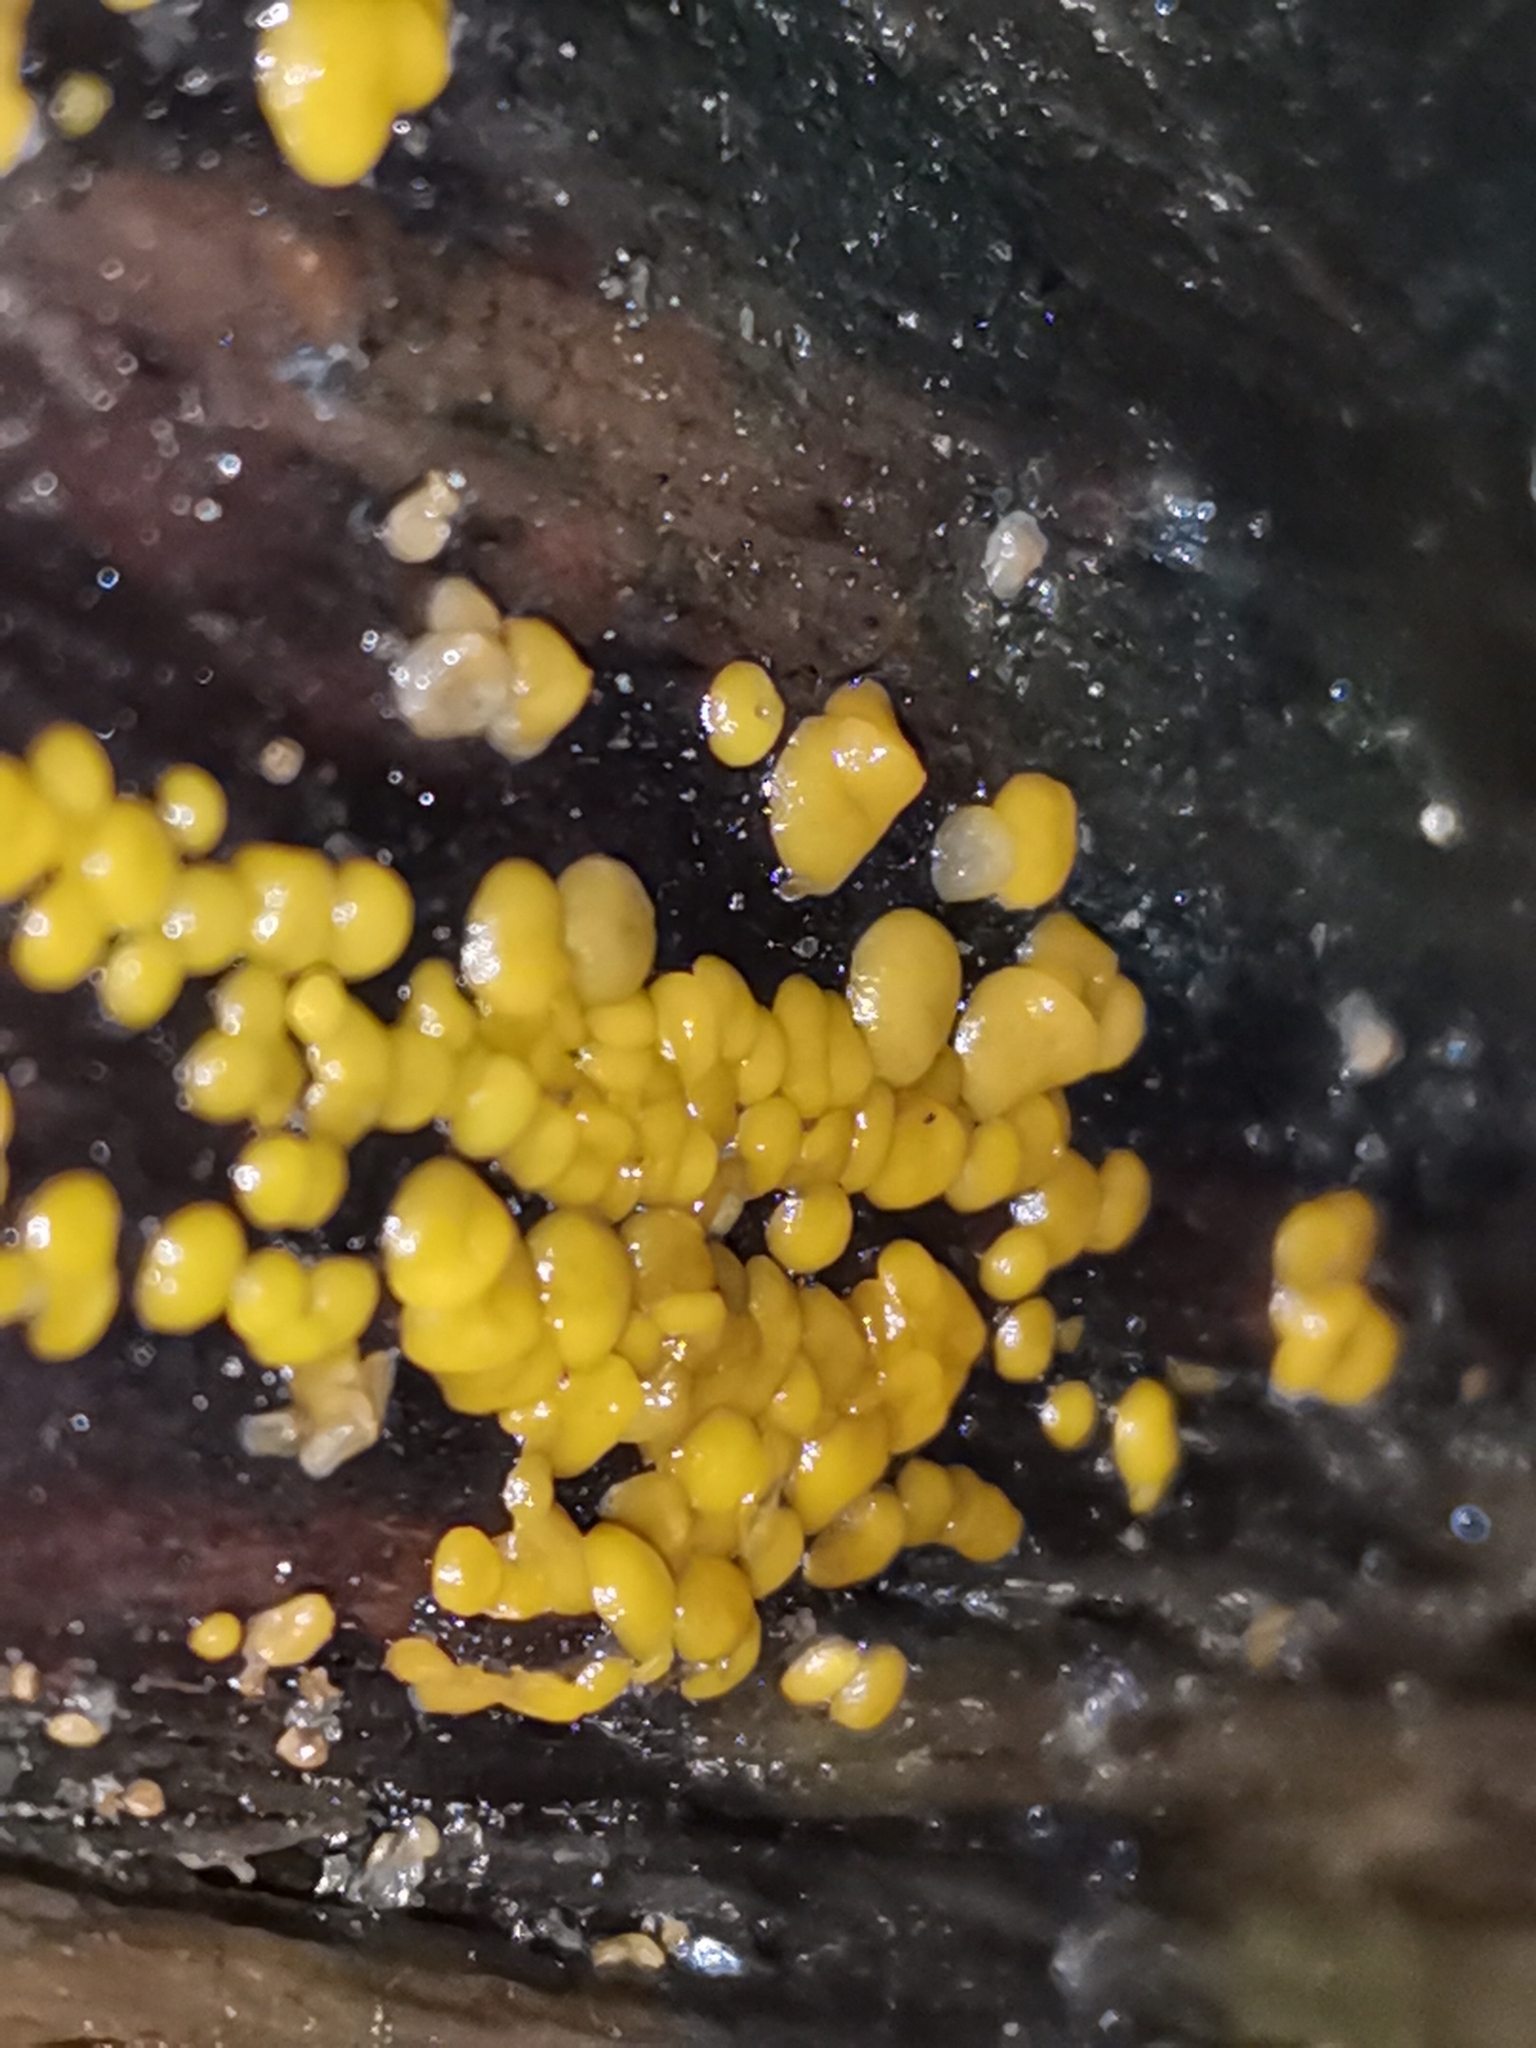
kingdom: Fungi
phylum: Ascomycota
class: Leotiomycetes
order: Helotiales
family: Pezizellaceae
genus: Calycina
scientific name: Calycina citrina
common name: Yellow fairy cups
